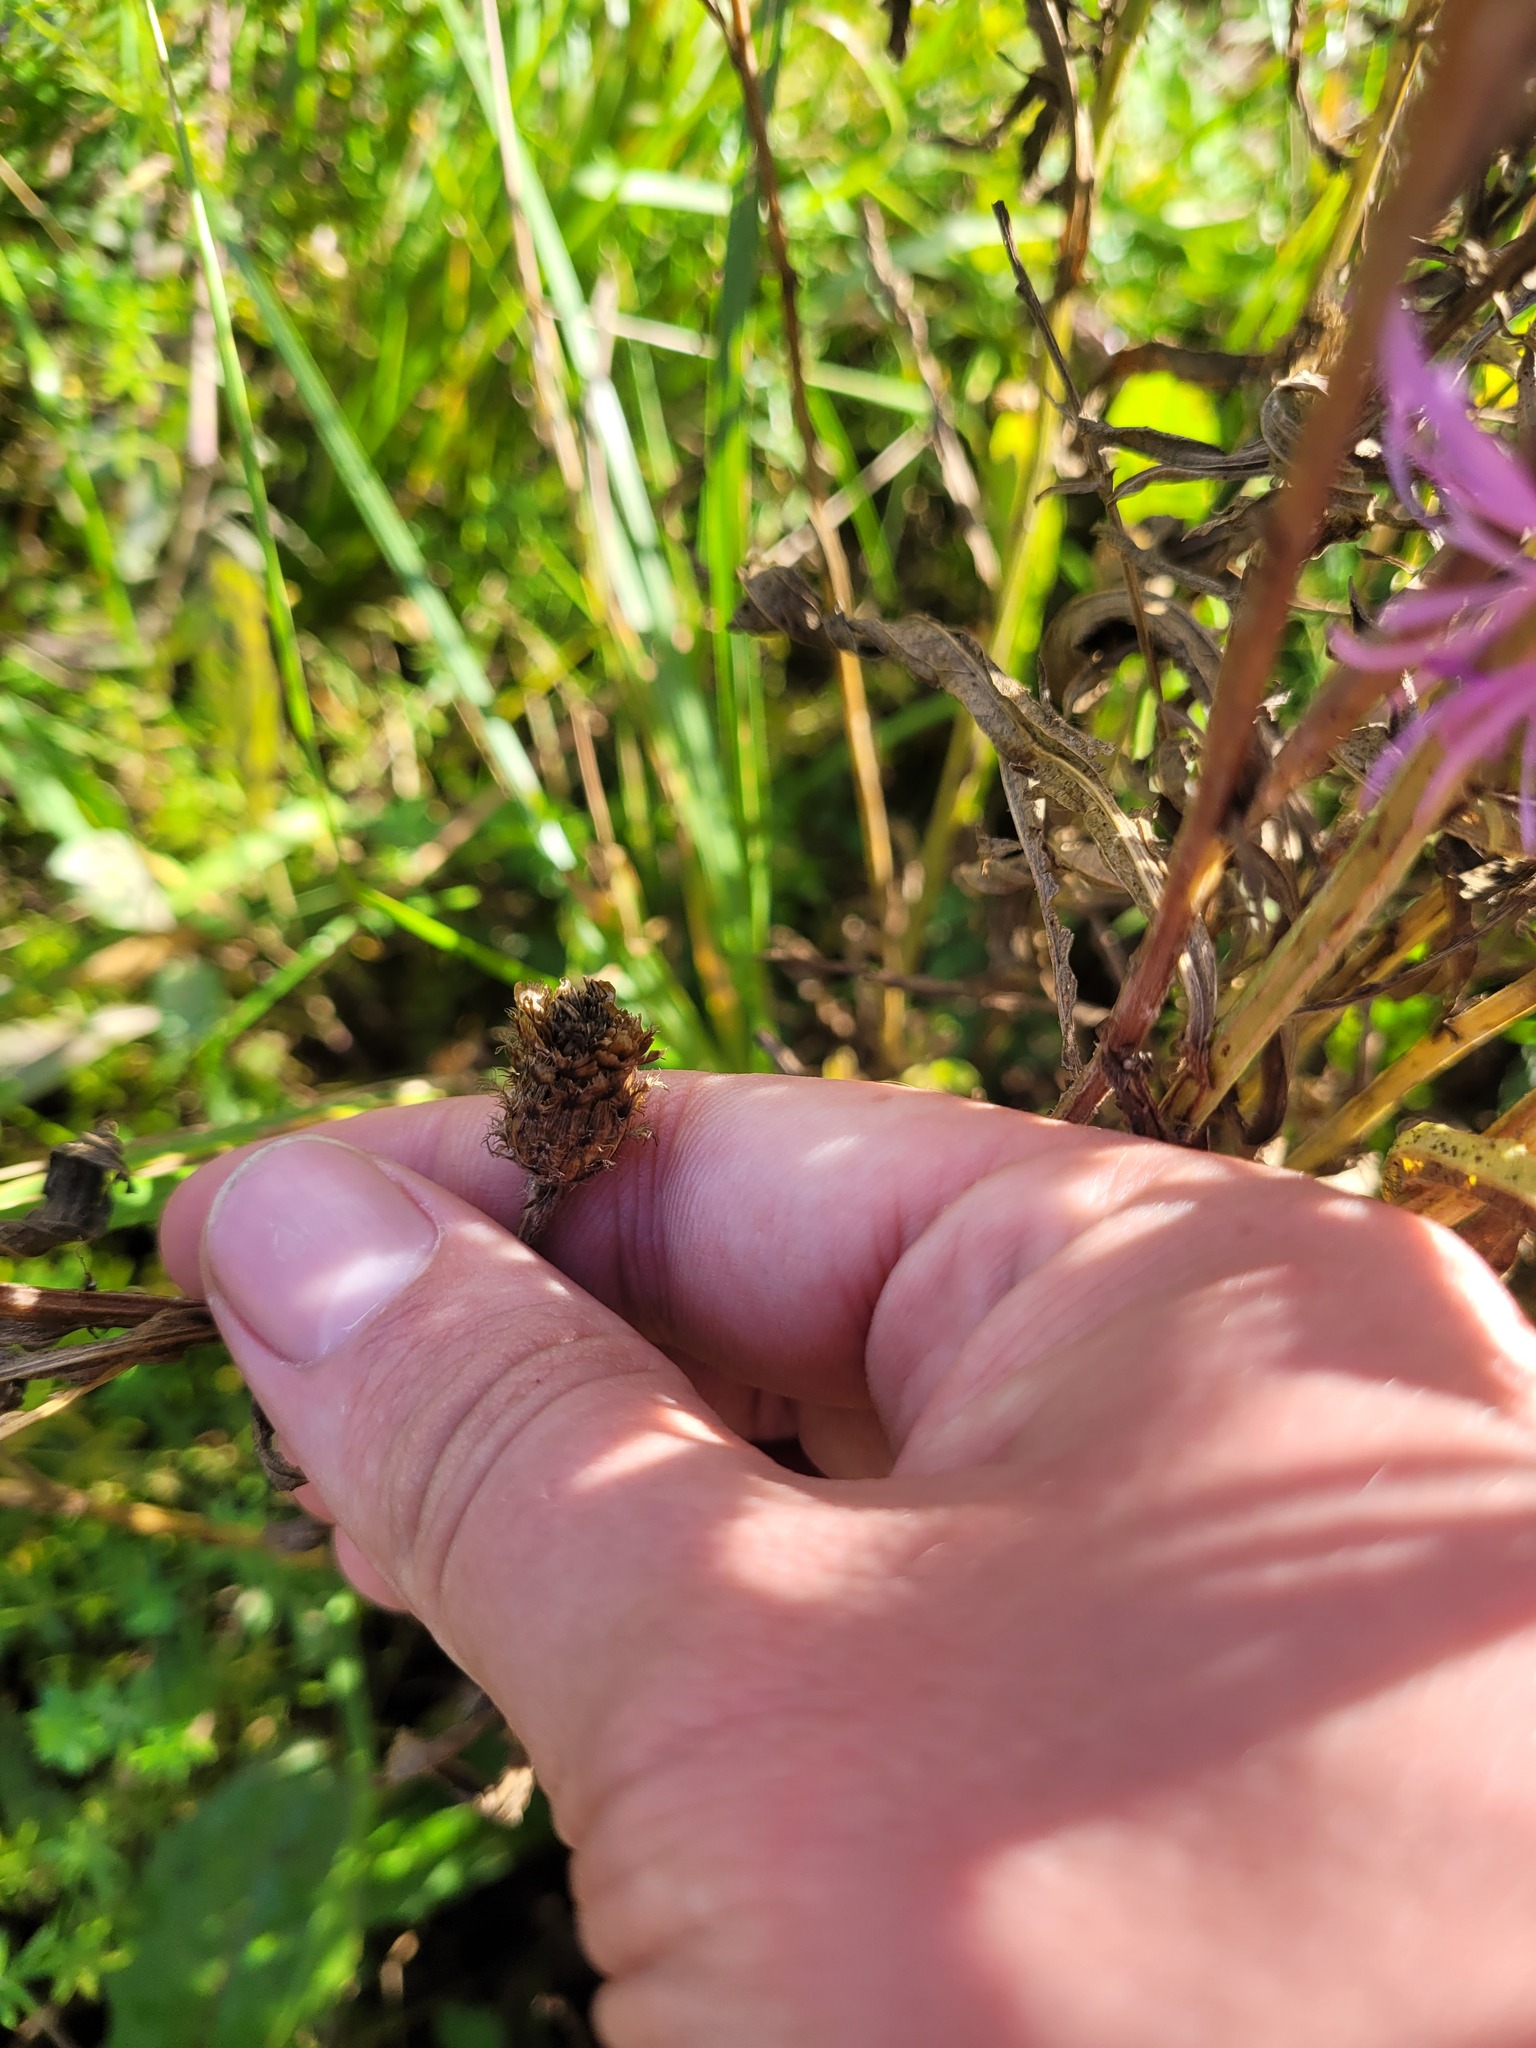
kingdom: Plantae
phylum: Tracheophyta
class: Magnoliopsida
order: Asterales
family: Asteraceae
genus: Centaurea
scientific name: Centaurea pseudophrygia
